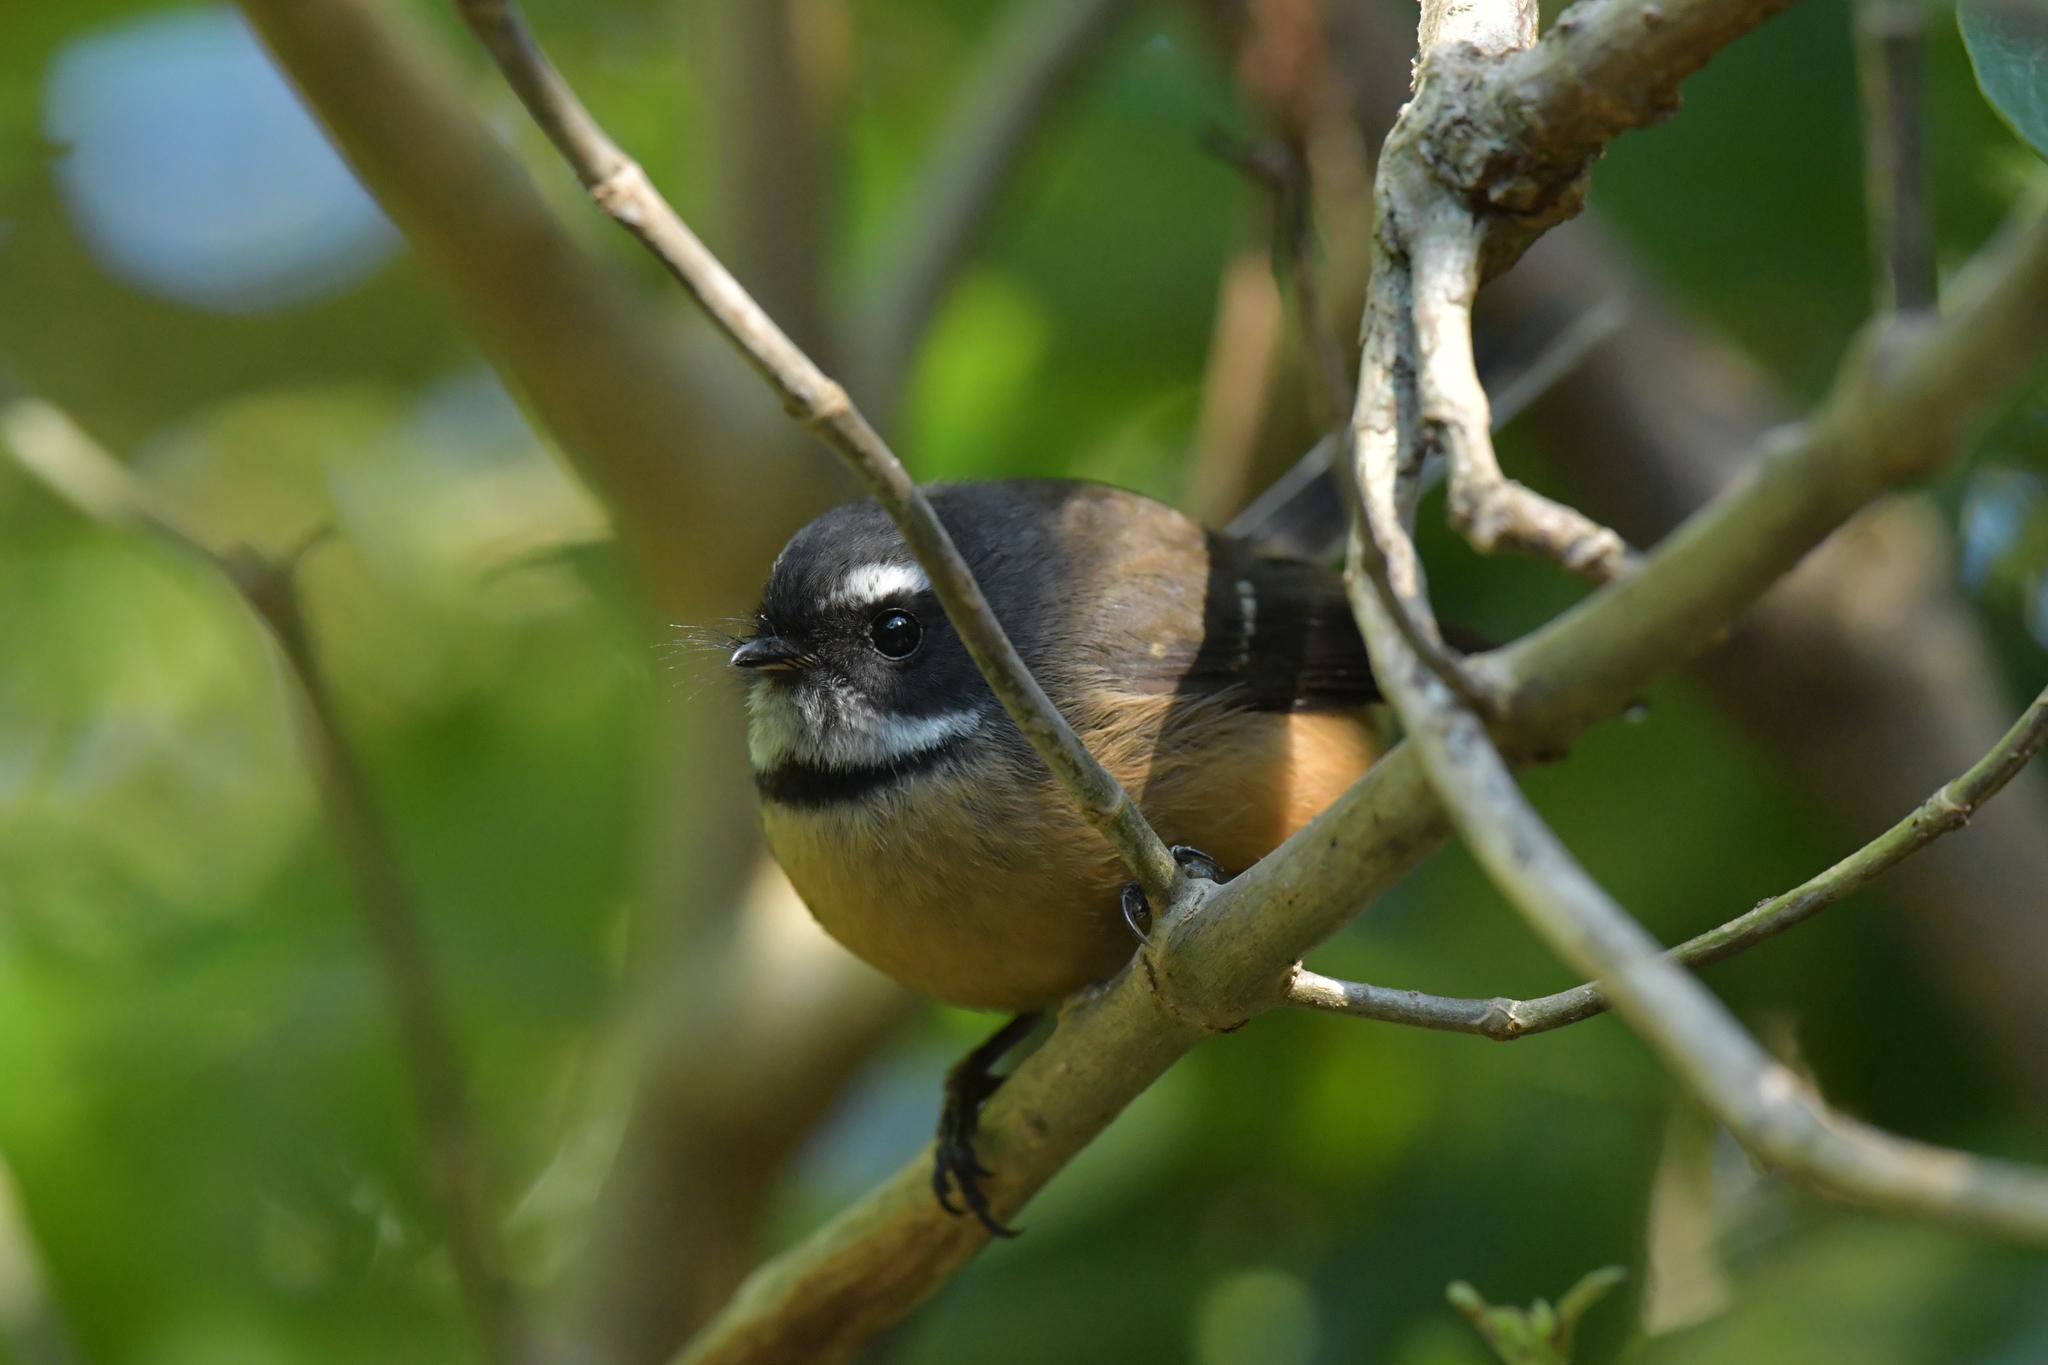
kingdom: Animalia
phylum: Chordata
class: Aves
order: Passeriformes
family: Rhipiduridae
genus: Rhipidura
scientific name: Rhipidura fuliginosa
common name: New zealand fantail
